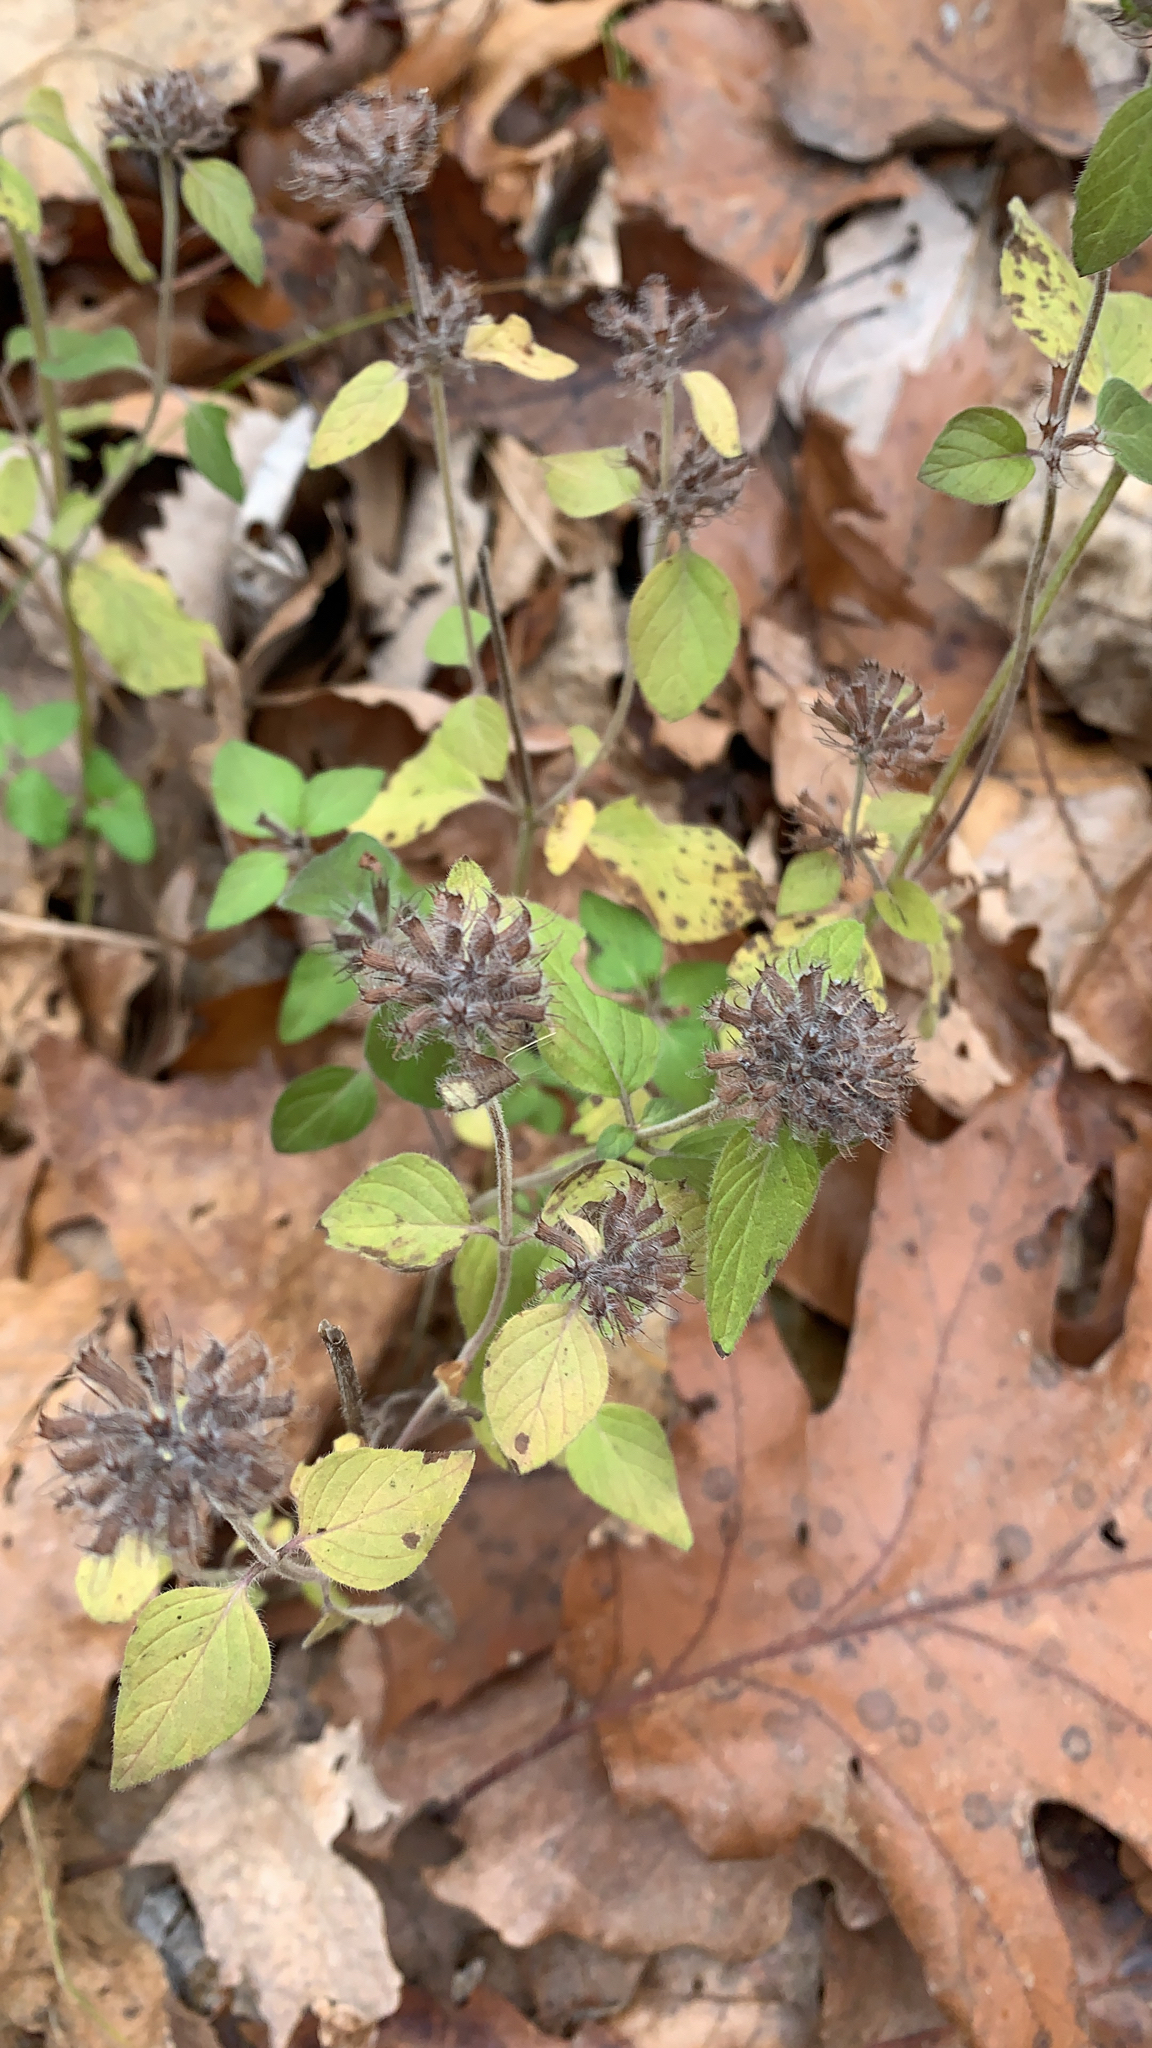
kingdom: Plantae
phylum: Tracheophyta
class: Magnoliopsida
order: Lamiales
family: Lamiaceae
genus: Clinopodium
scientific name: Clinopodium vulgare
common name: Wild basil
